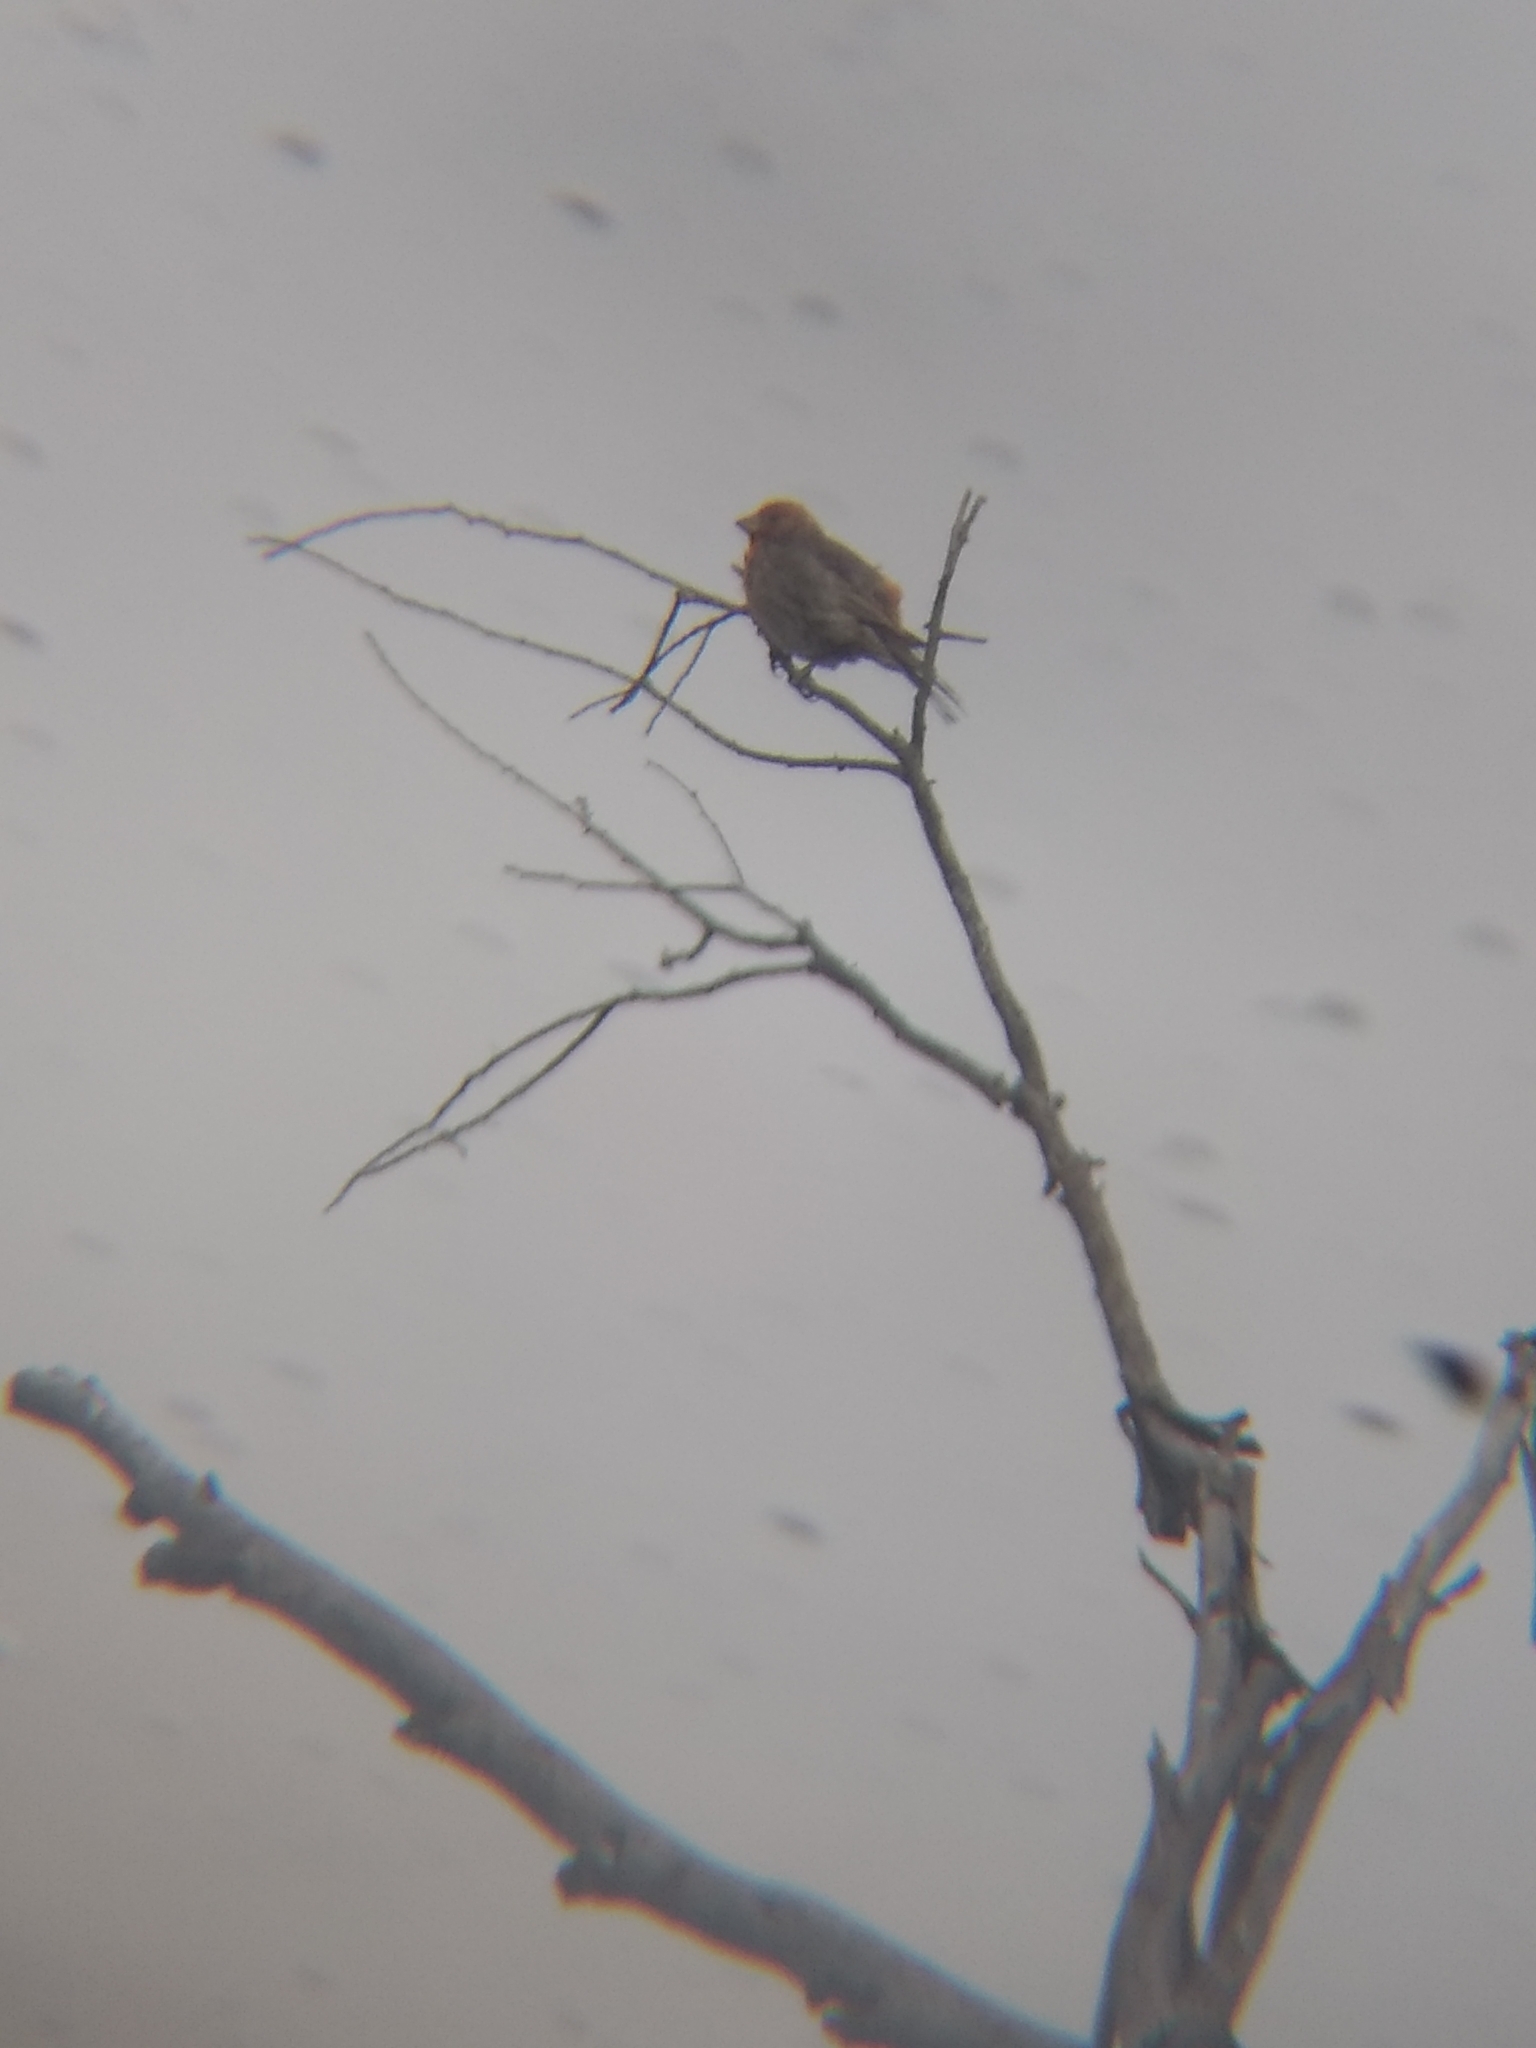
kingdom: Animalia
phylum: Chordata
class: Aves
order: Passeriformes
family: Fringillidae
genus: Haemorhous
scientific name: Haemorhous mexicanus
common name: House finch
